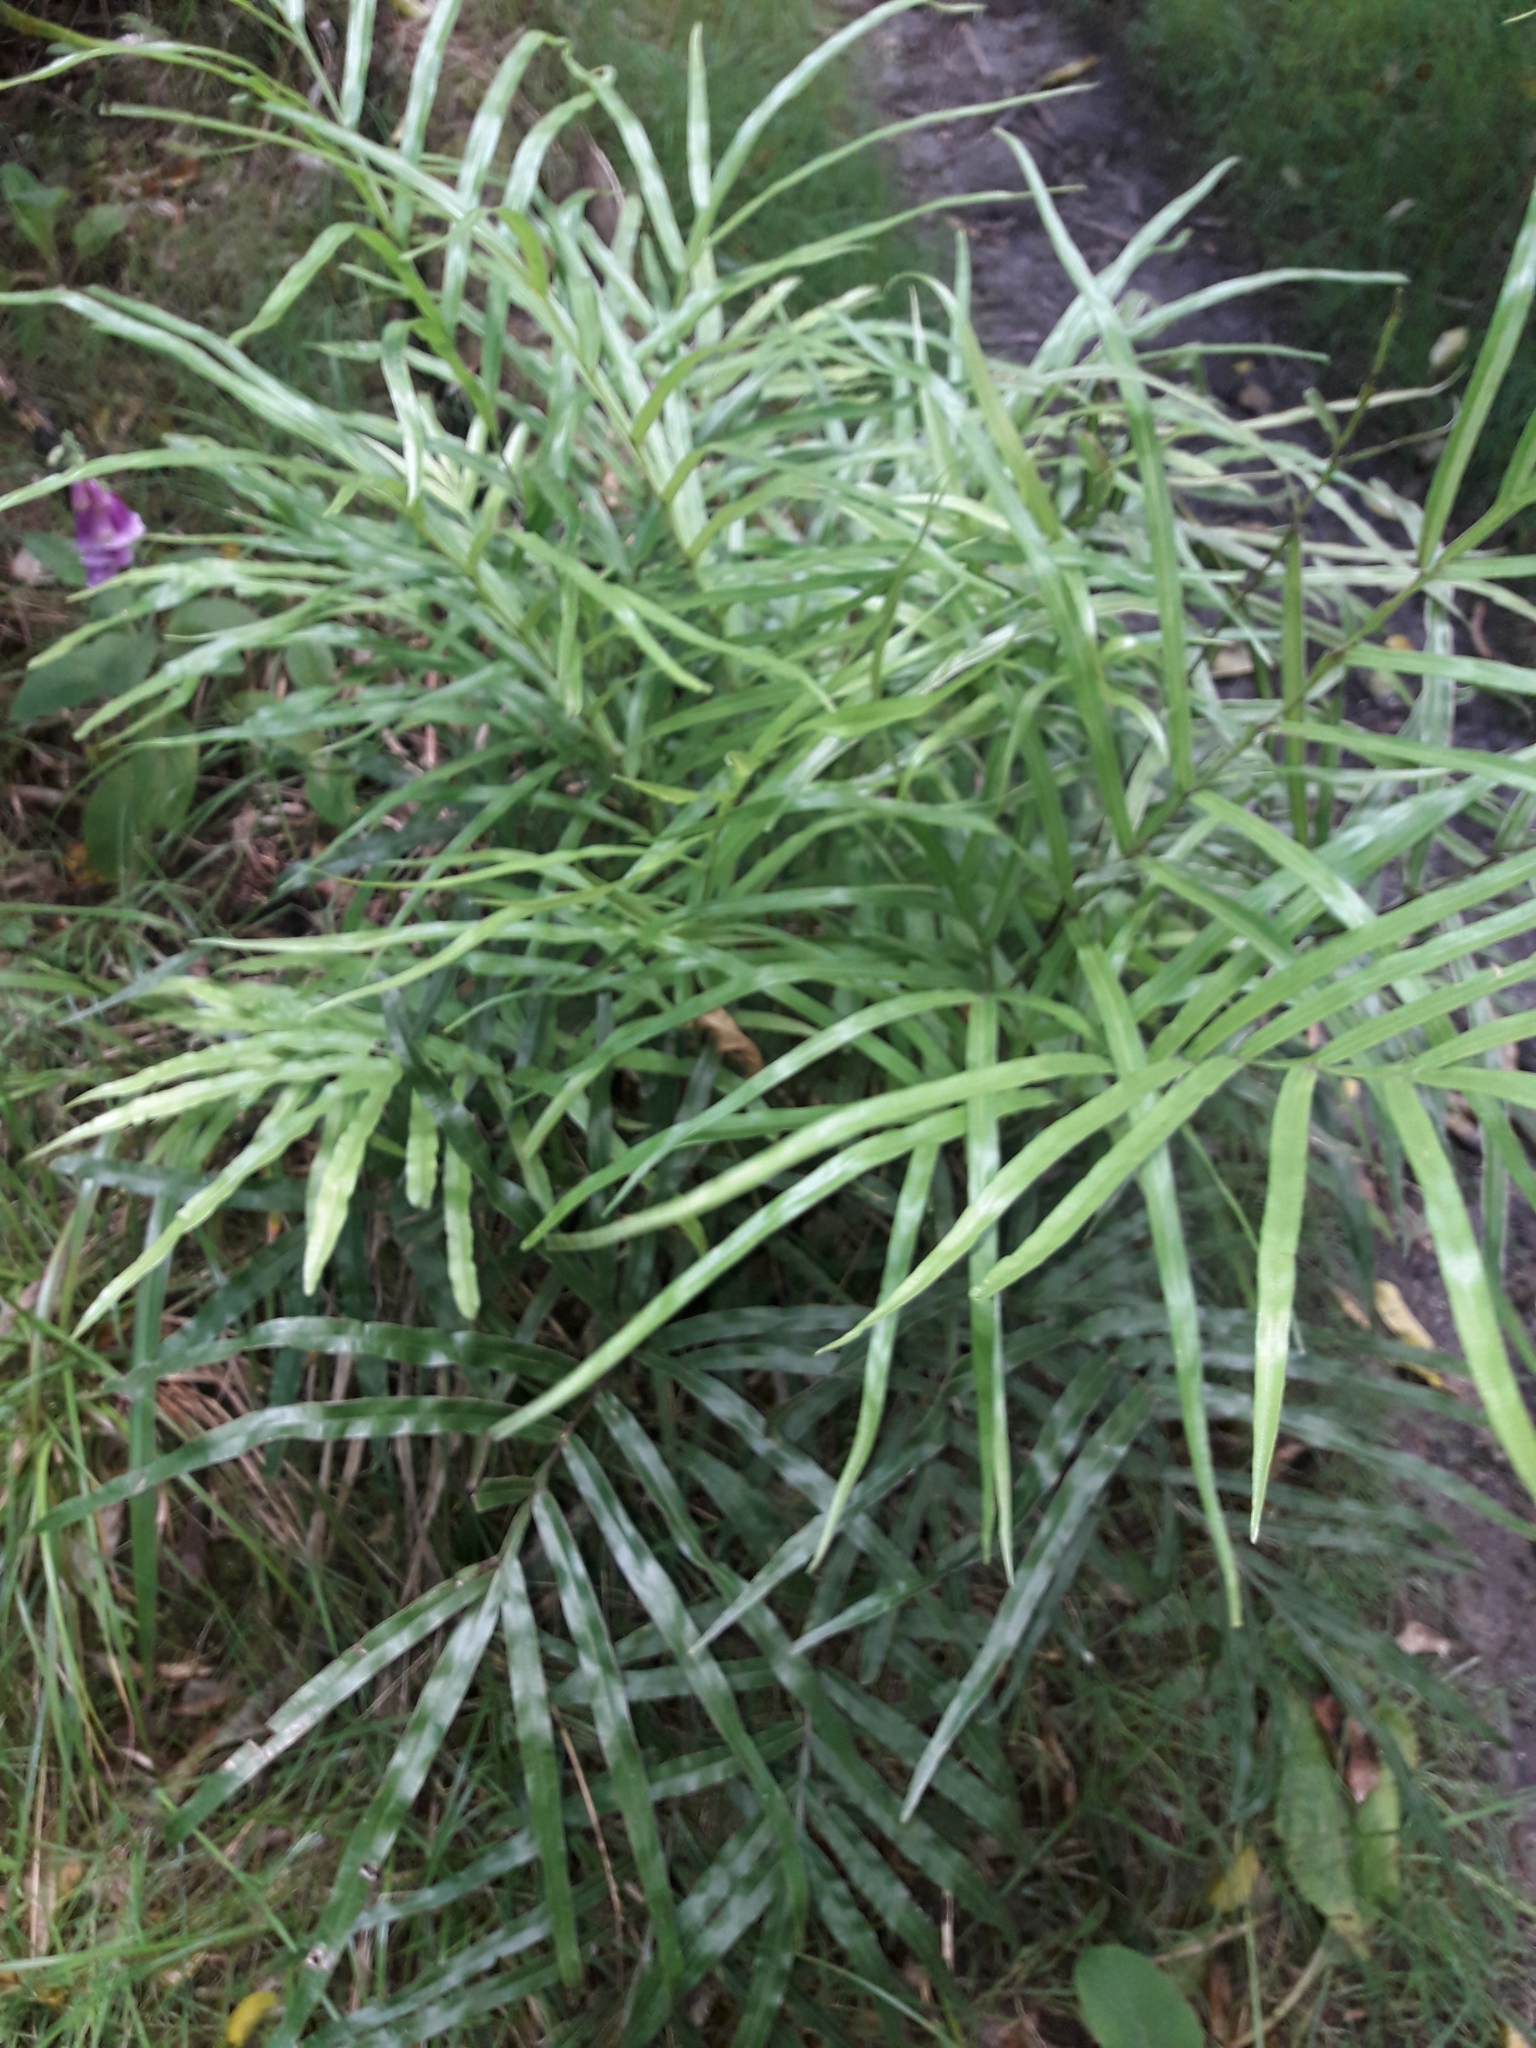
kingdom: Plantae
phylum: Tracheophyta
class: Polypodiopsida
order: Polypodiales
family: Pteridaceae
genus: Pteris
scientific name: Pteris cretica
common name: Ribbon fern
